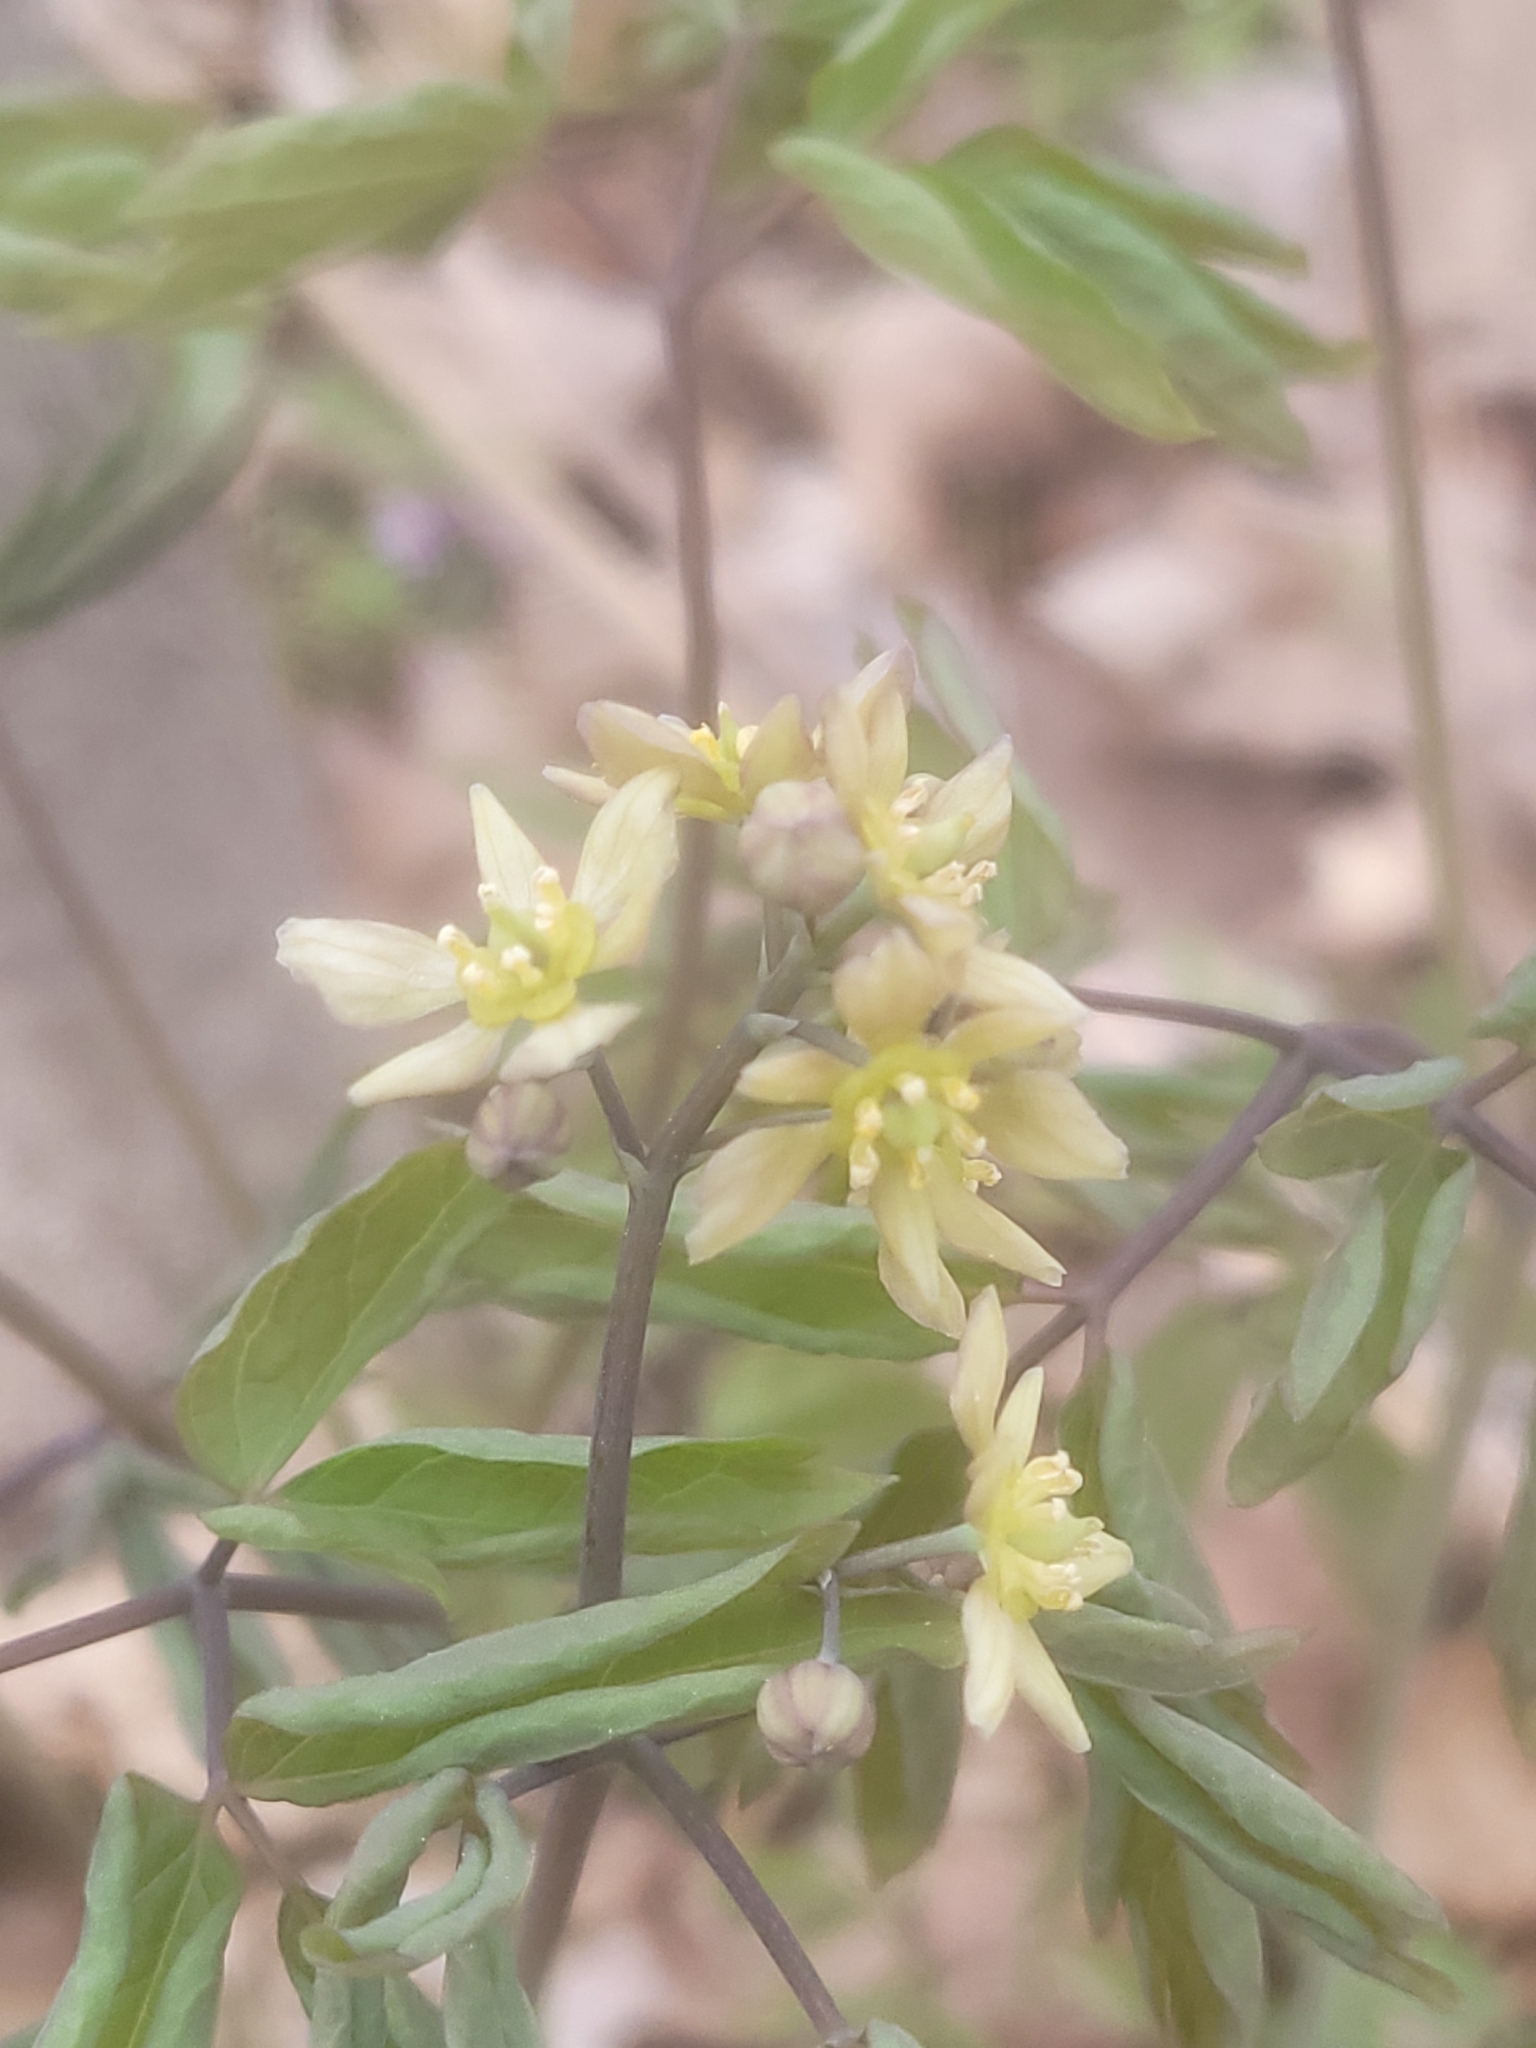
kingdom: Plantae
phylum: Tracheophyta
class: Magnoliopsida
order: Ranunculales
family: Berberidaceae
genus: Caulophyllum
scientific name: Caulophyllum thalictroides
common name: Blue cohosh
